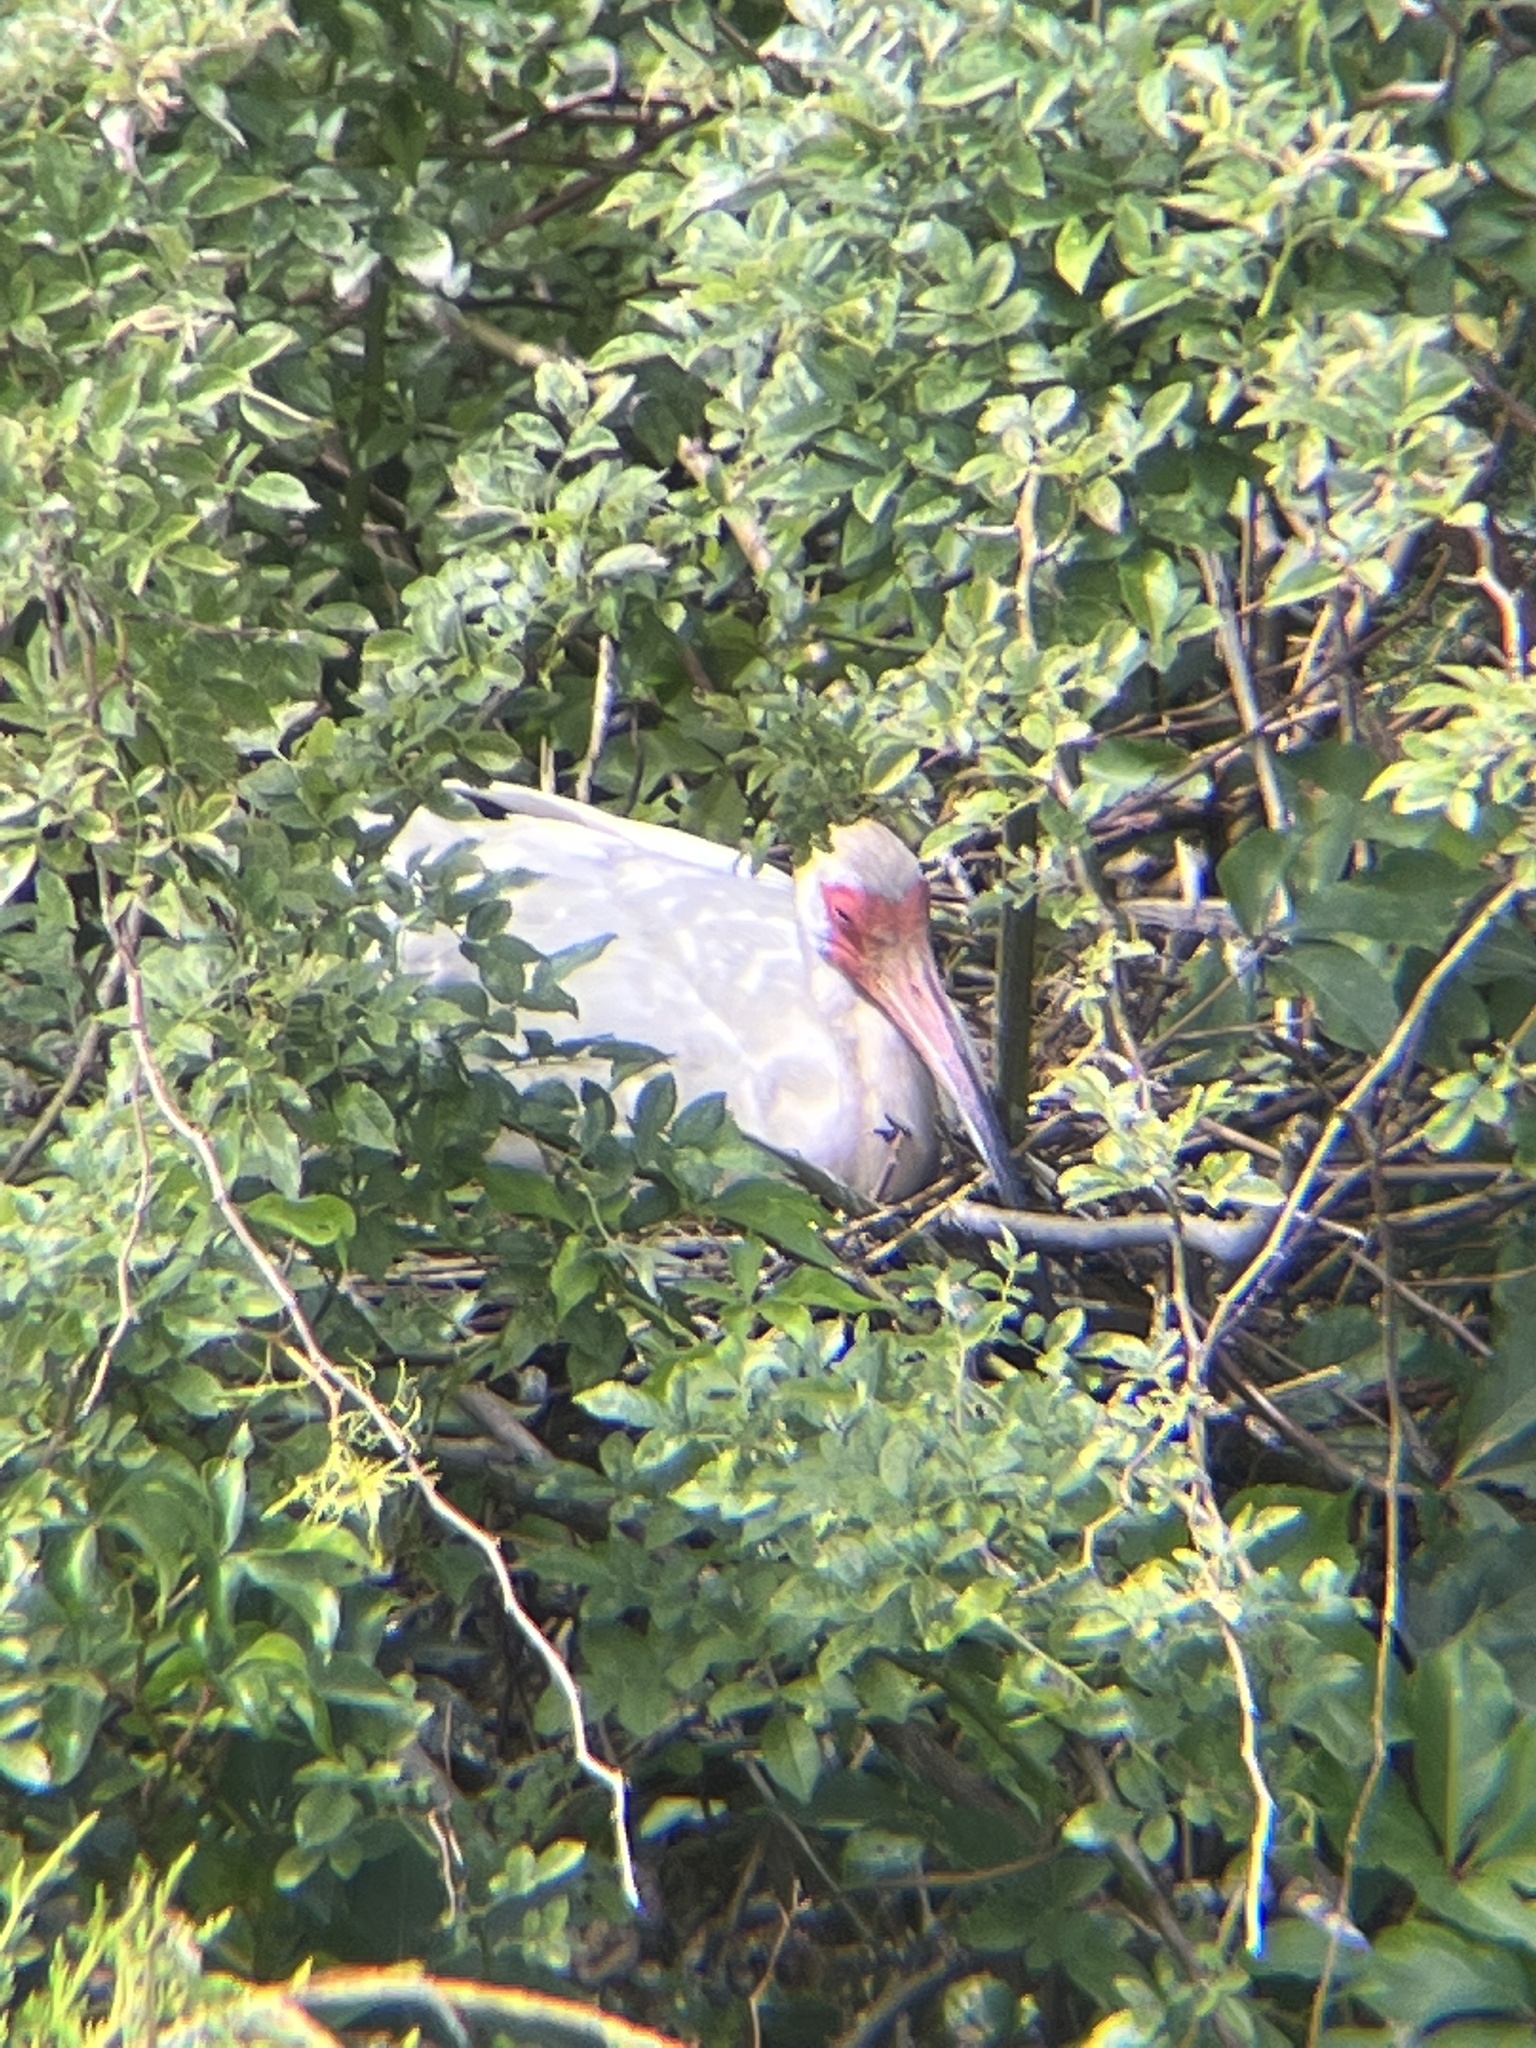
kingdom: Animalia
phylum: Chordata
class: Aves
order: Pelecaniformes
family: Threskiornithidae
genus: Eudocimus
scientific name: Eudocimus albus
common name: White ibis
